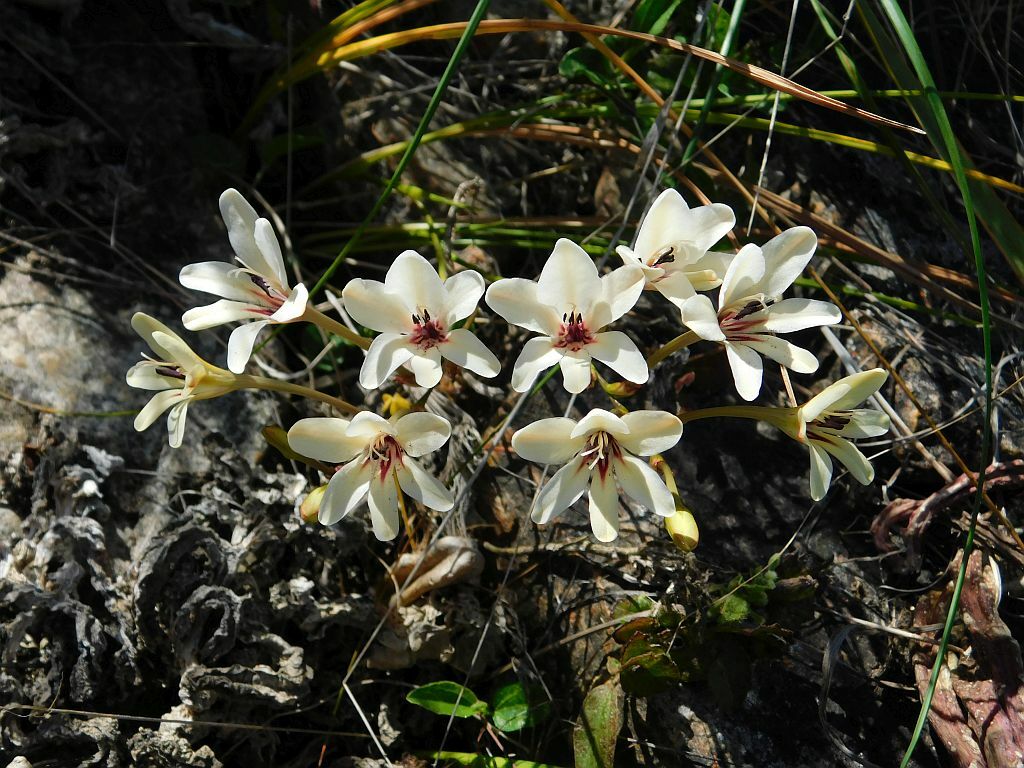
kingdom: Plantae
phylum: Tracheophyta
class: Liliopsida
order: Asparagales
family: Iridaceae
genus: Tritonia
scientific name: Tritonia cooperi
